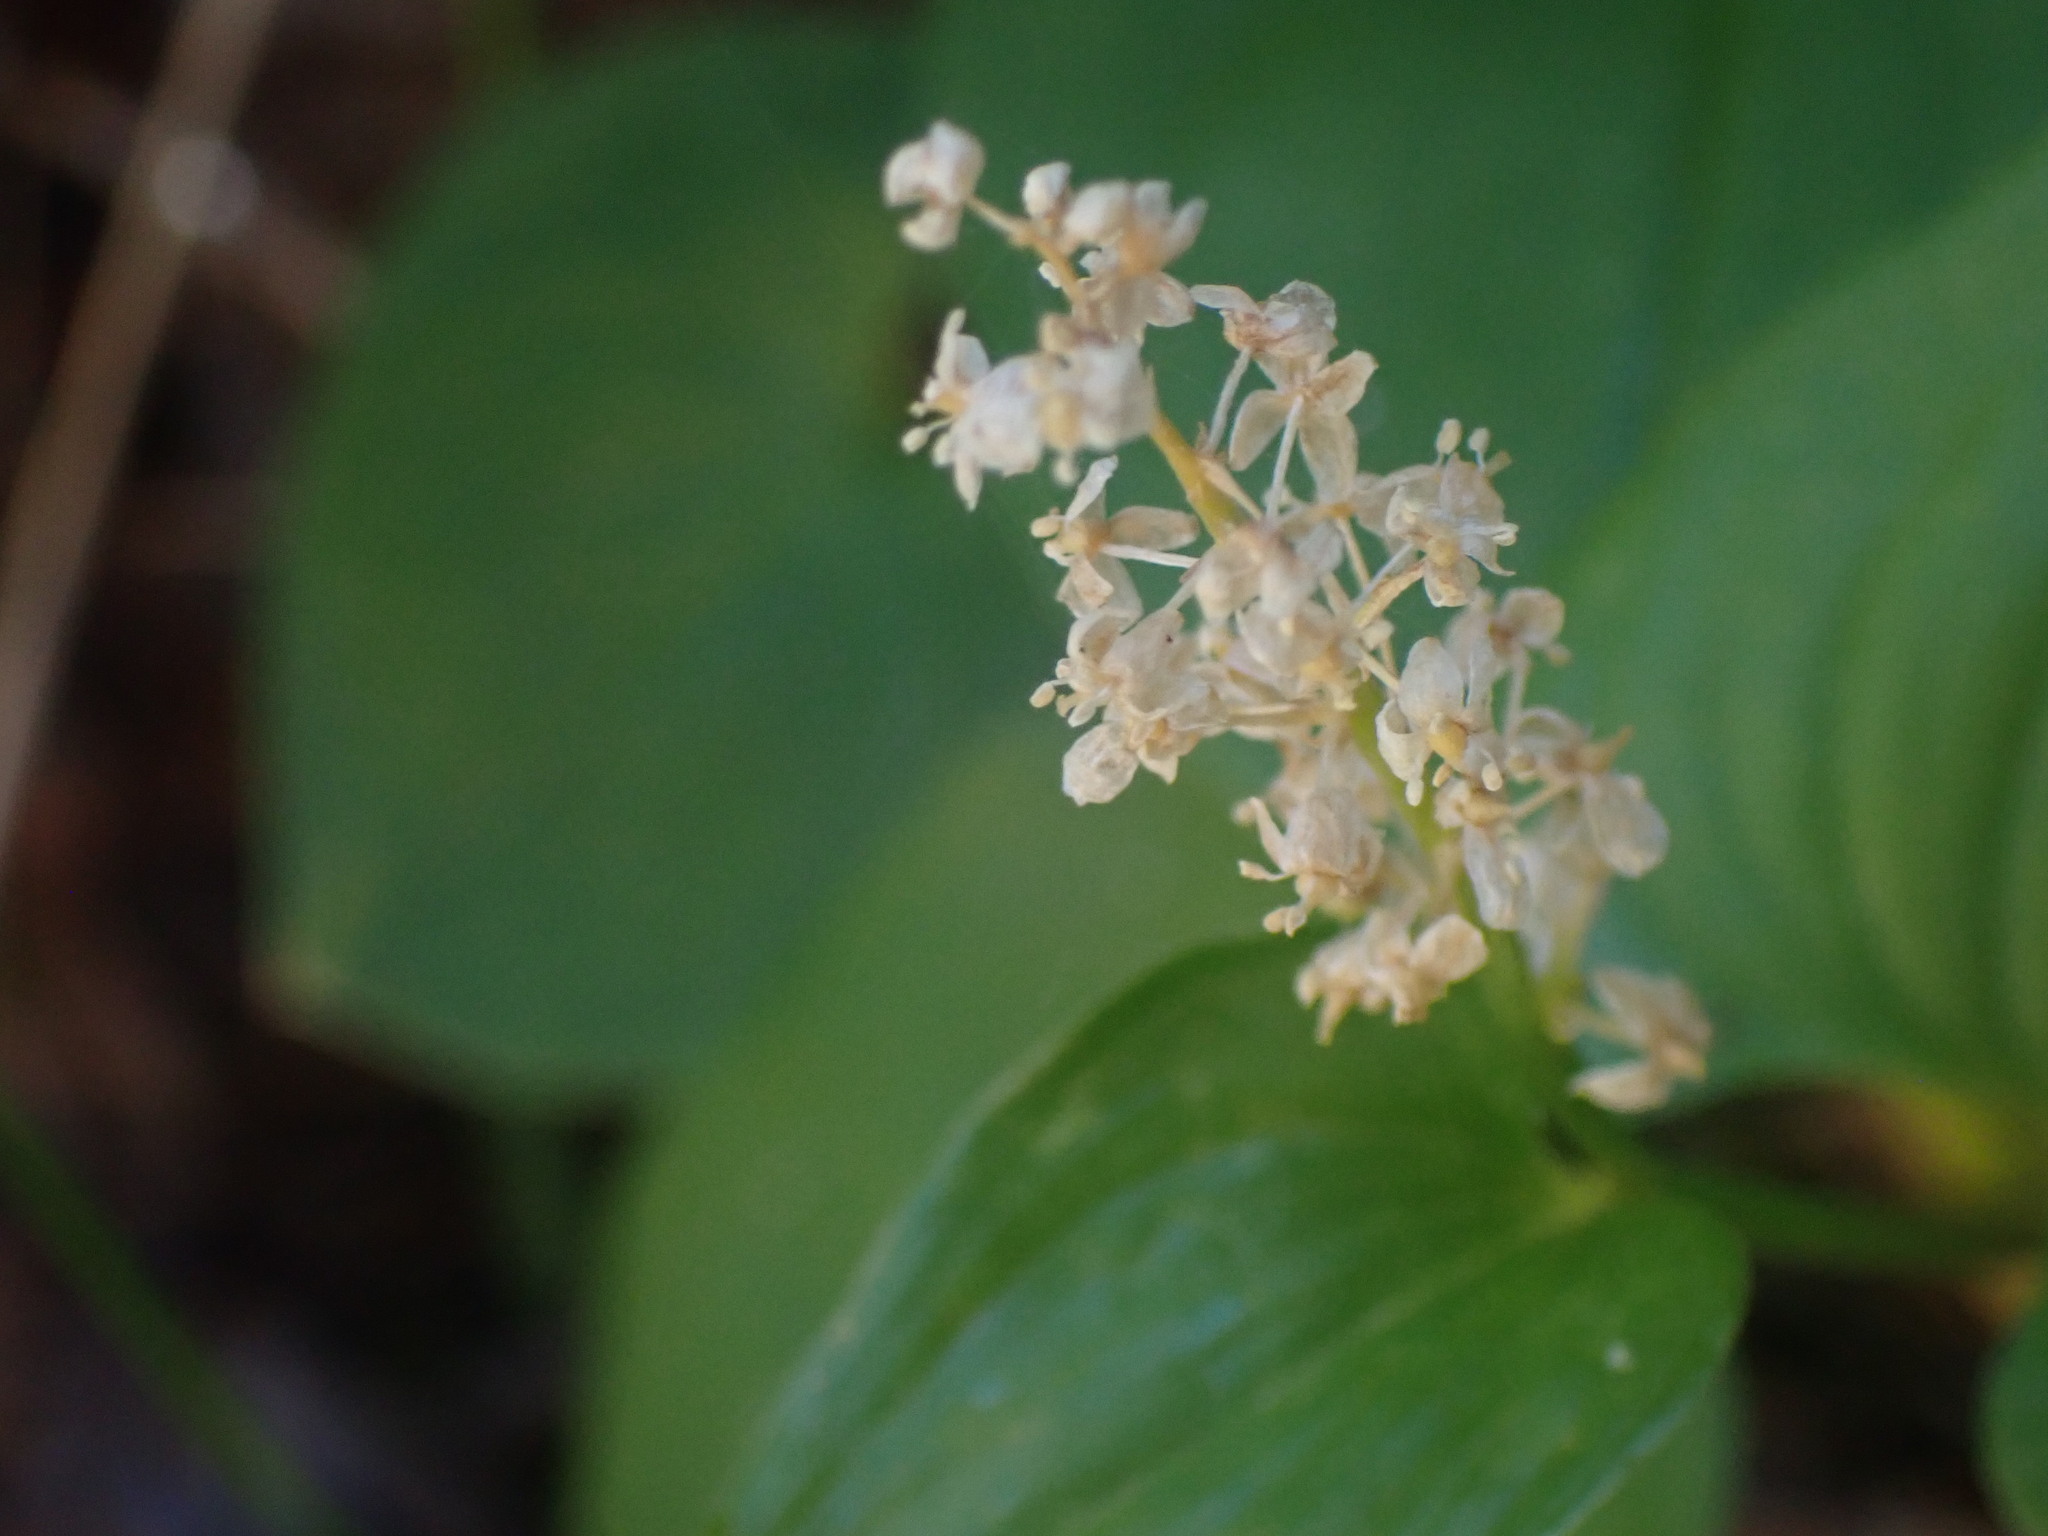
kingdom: Plantae
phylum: Tracheophyta
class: Liliopsida
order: Asparagales
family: Asparagaceae
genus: Maianthemum
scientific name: Maianthemum dilatatum
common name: False lily-of-the-valley
